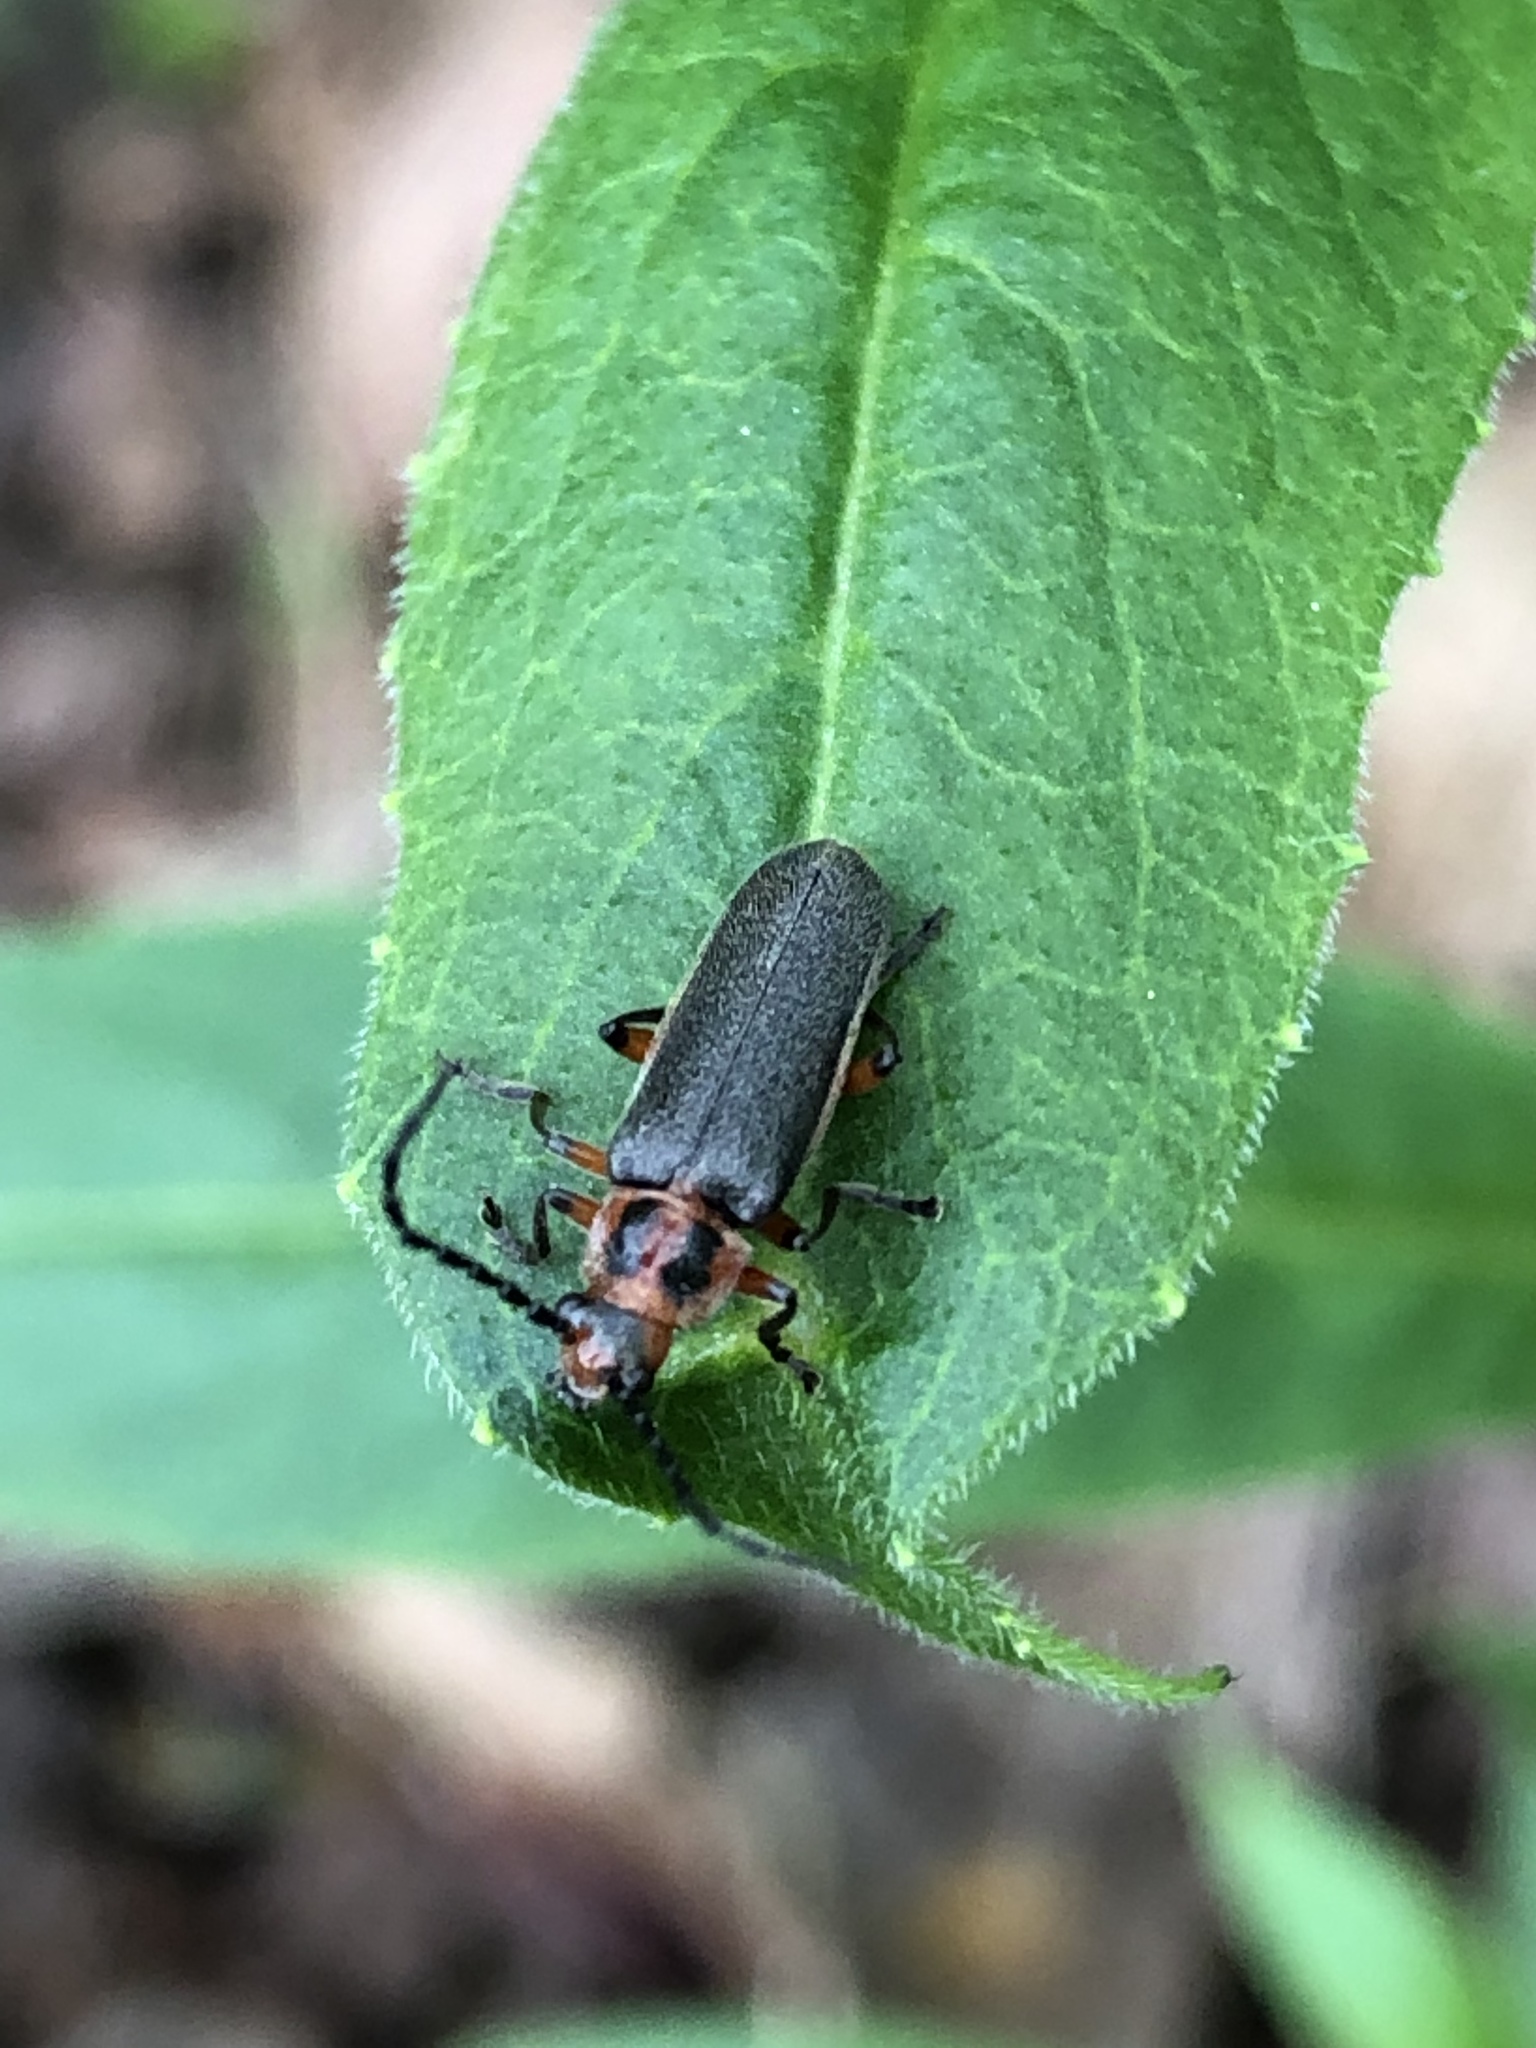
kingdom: Animalia
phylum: Arthropoda
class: Insecta
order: Coleoptera
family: Cantharidae
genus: Atalantycha
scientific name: Atalantycha bilineata
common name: Two-lined leatherwing
